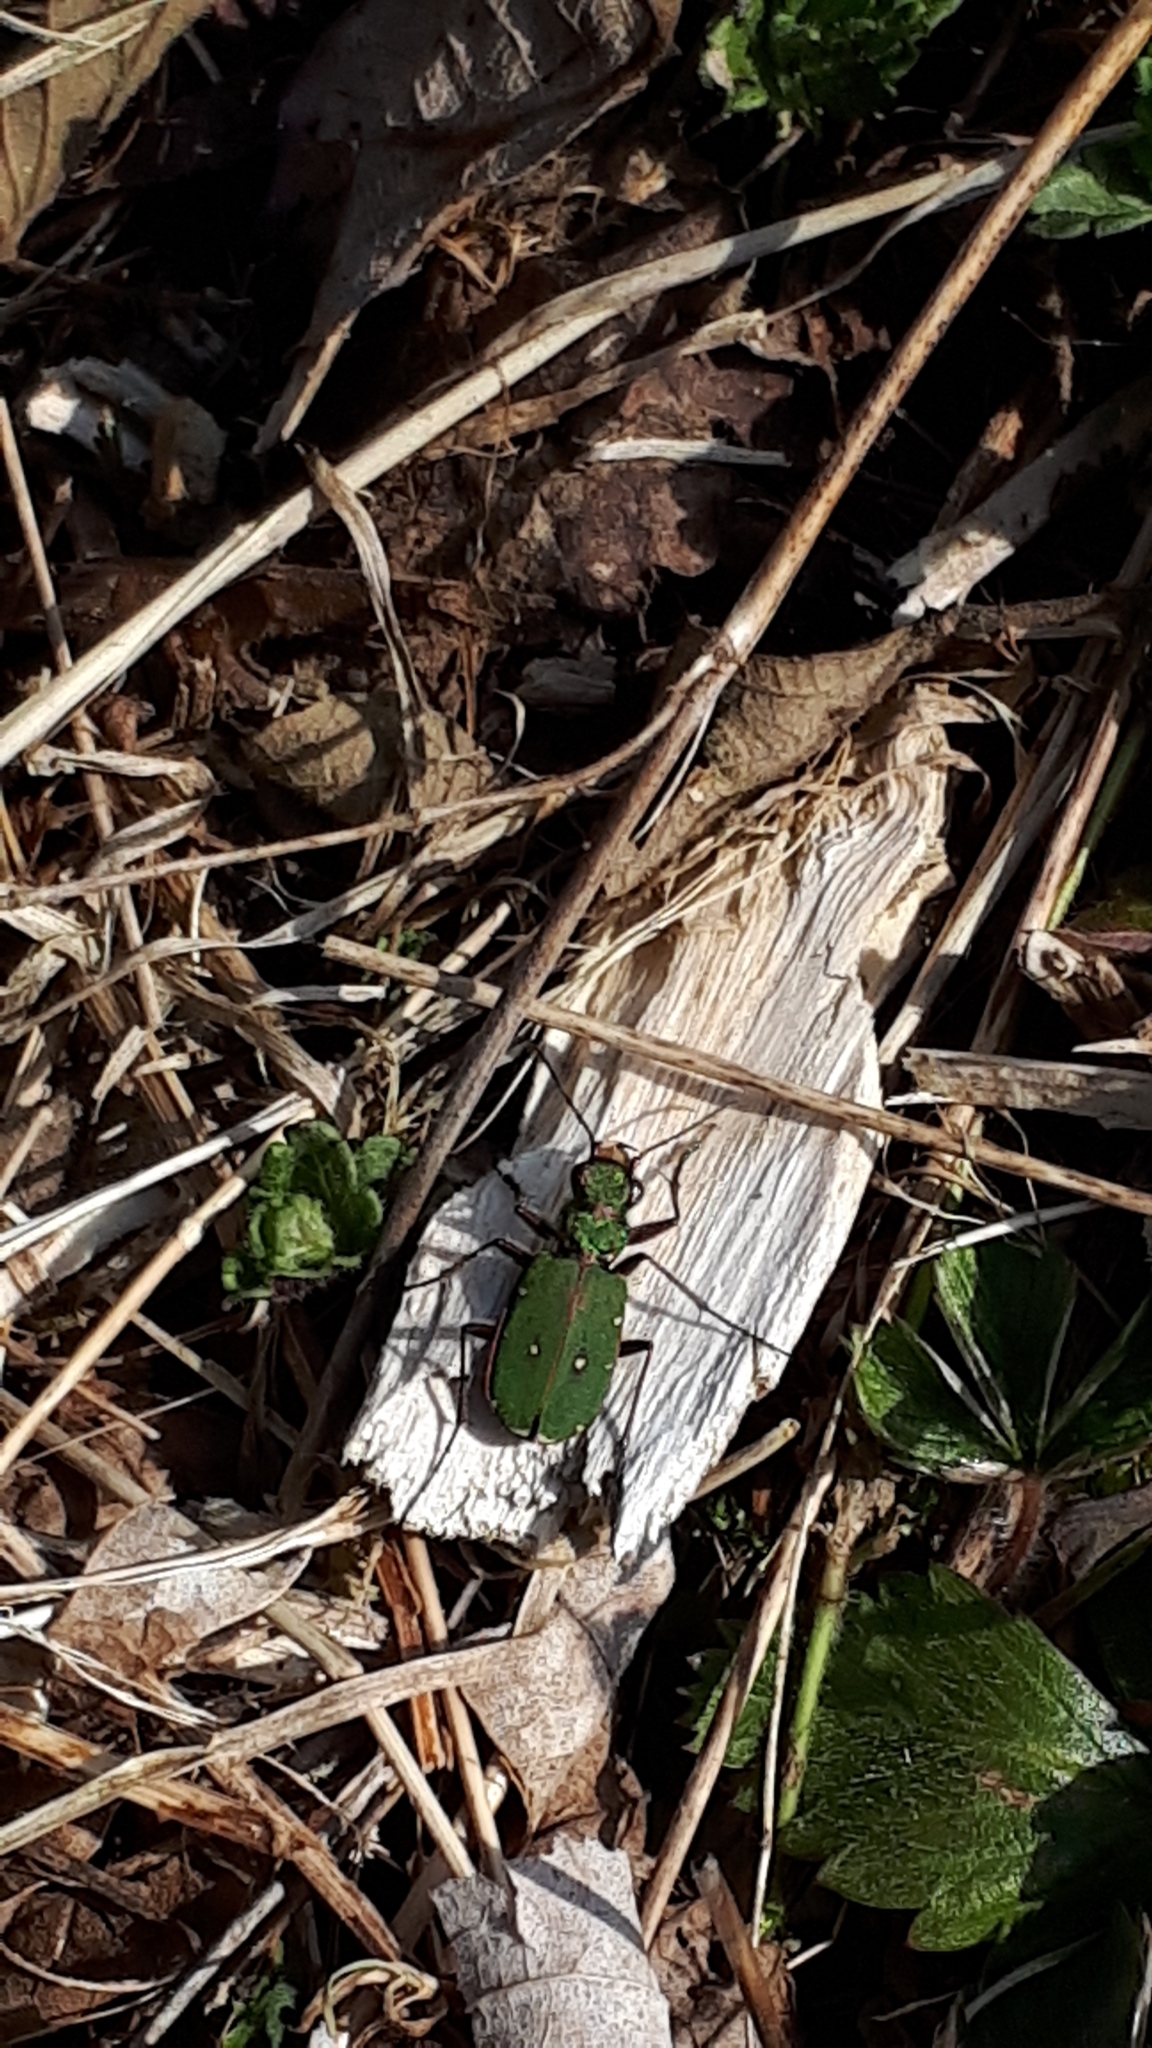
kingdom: Animalia
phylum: Arthropoda
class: Insecta
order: Coleoptera
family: Carabidae
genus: Cicindela
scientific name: Cicindela campestris
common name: Common tiger beetle
